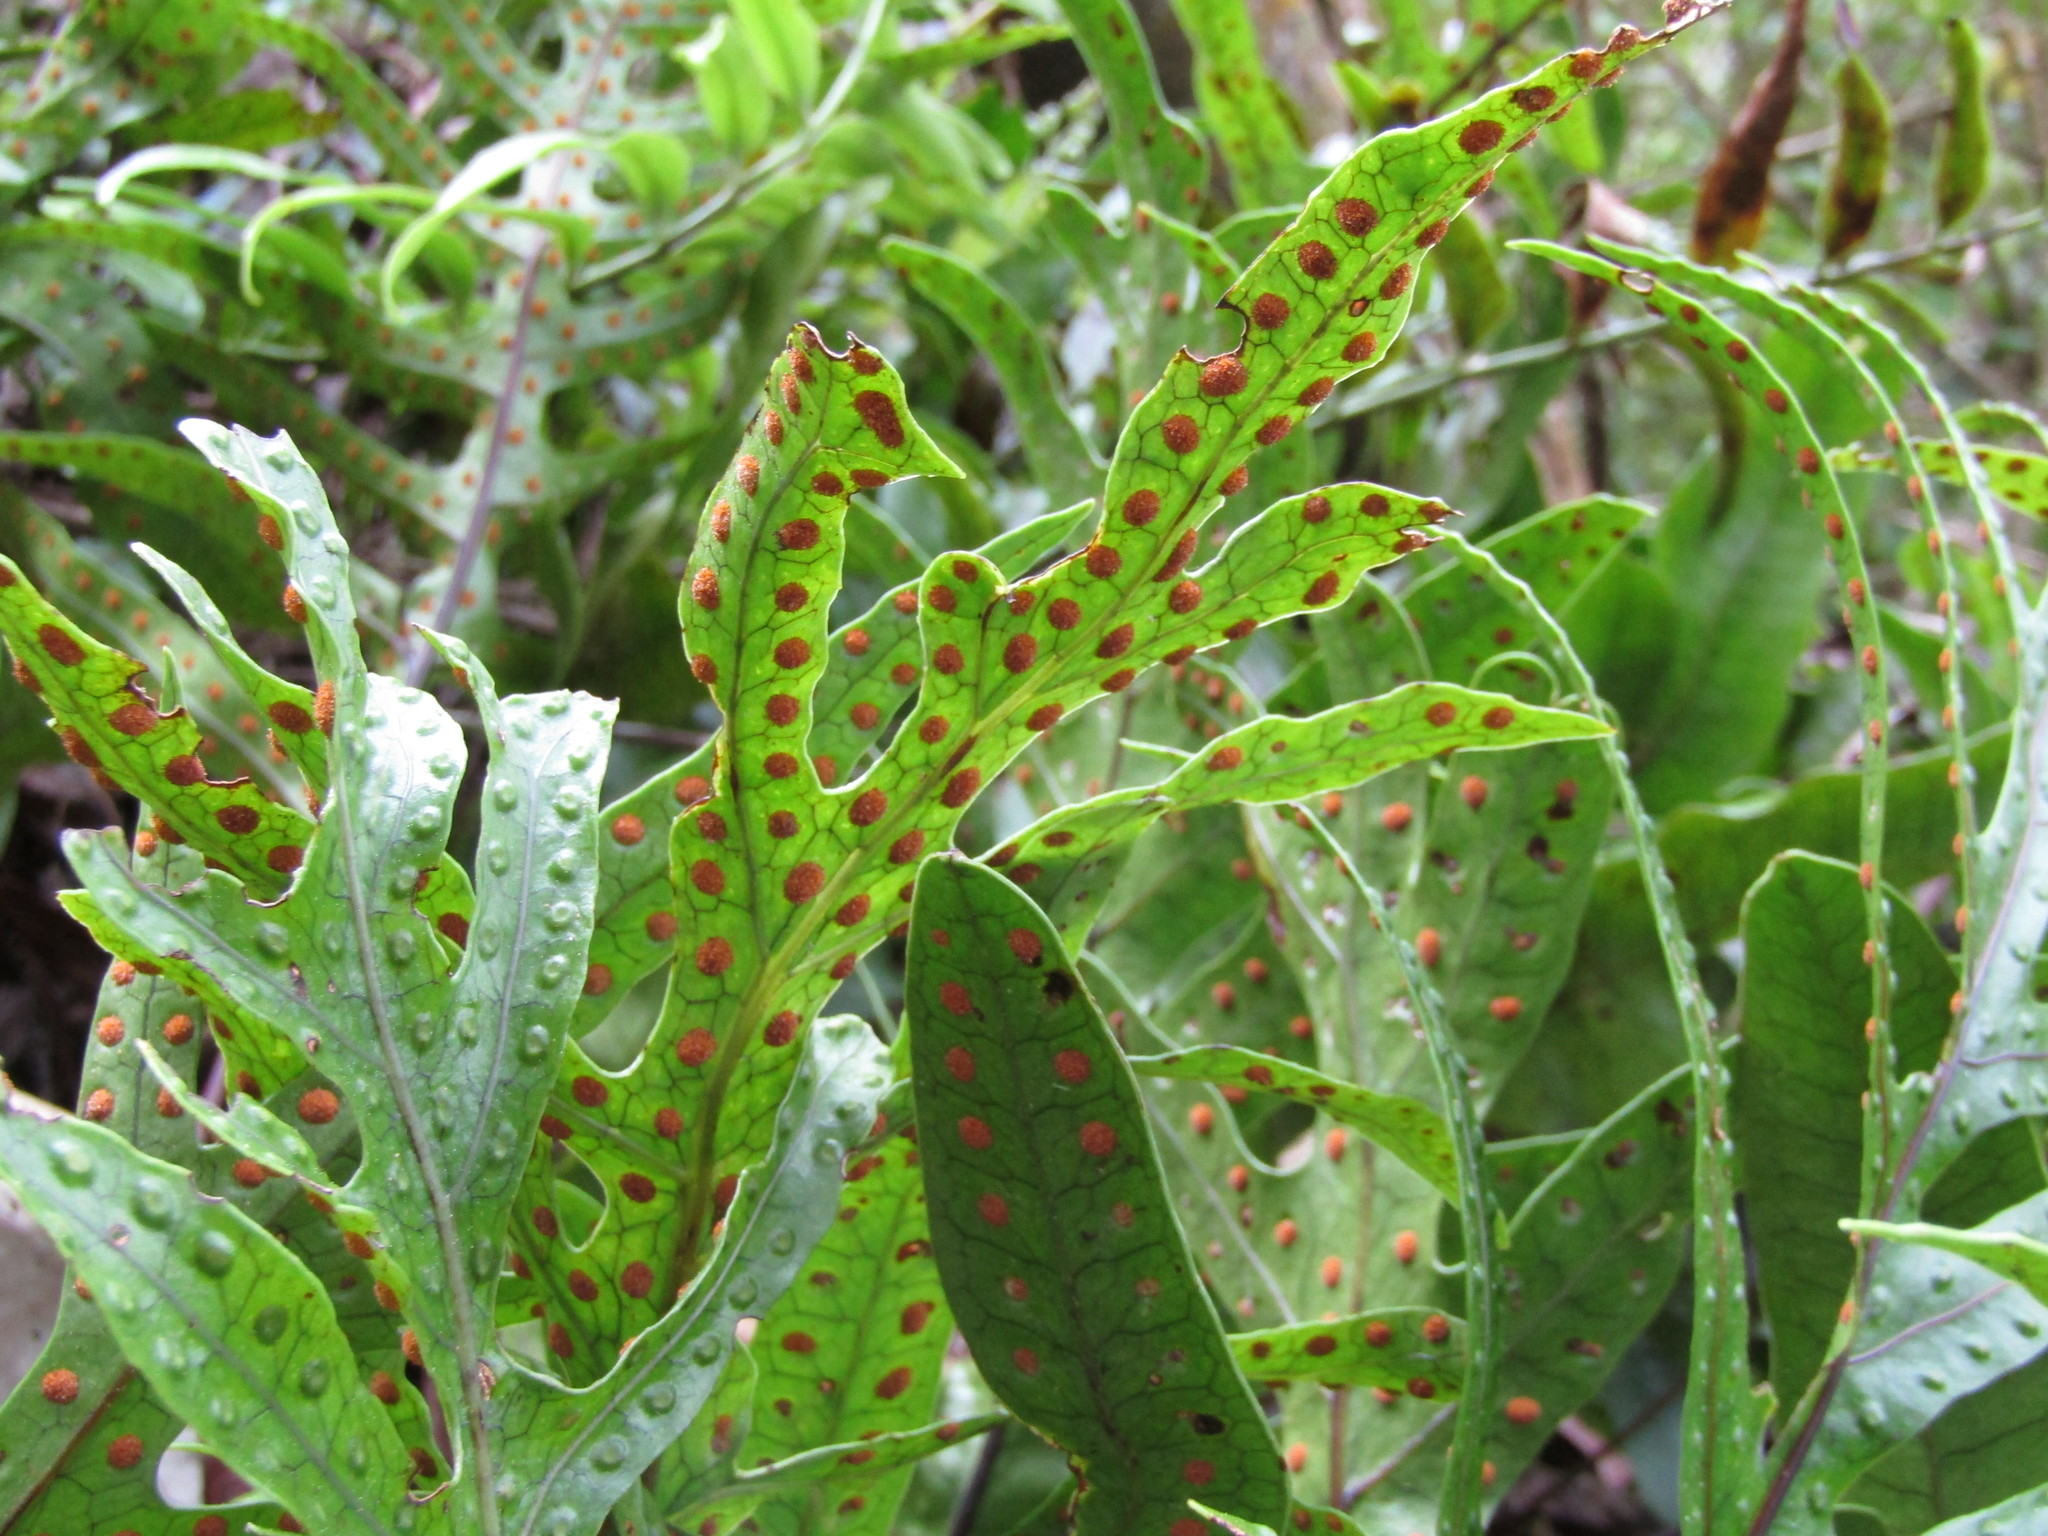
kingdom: Plantae
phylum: Tracheophyta
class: Polypodiopsida
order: Polypodiales
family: Polypodiaceae
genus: Lecanopteris
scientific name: Lecanopteris pustulata
